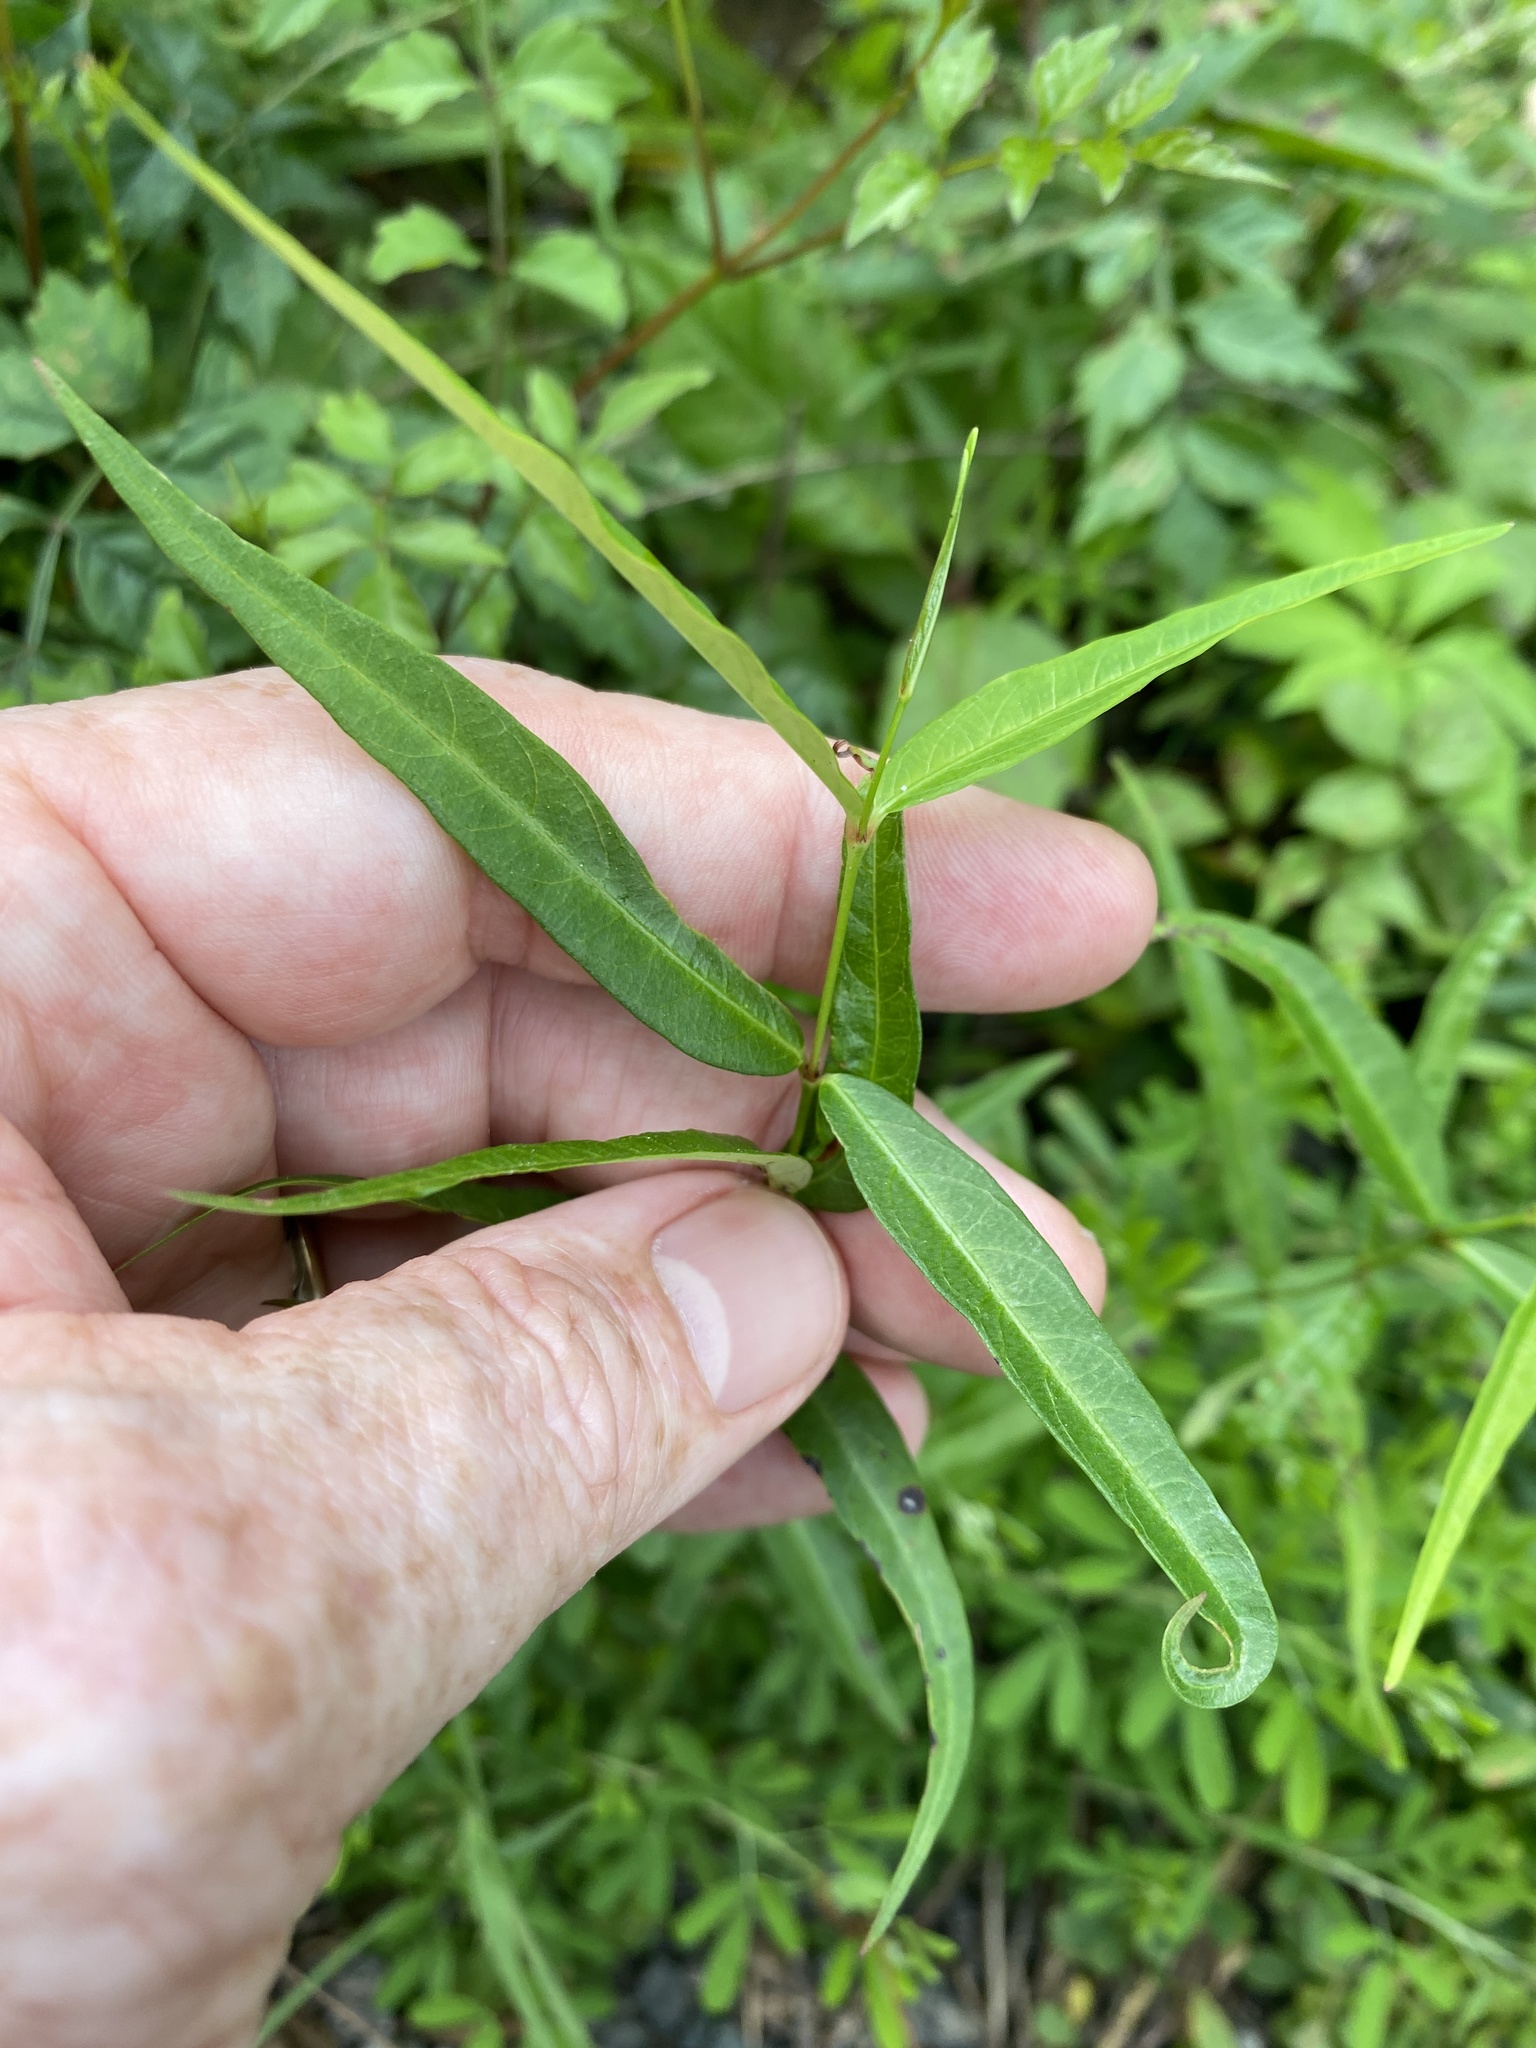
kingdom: Plantae
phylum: Tracheophyta
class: Magnoliopsida
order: Gentianales
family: Apocynaceae
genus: Thyrsanthella
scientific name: Thyrsanthella difformis
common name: Climbing dogbane
